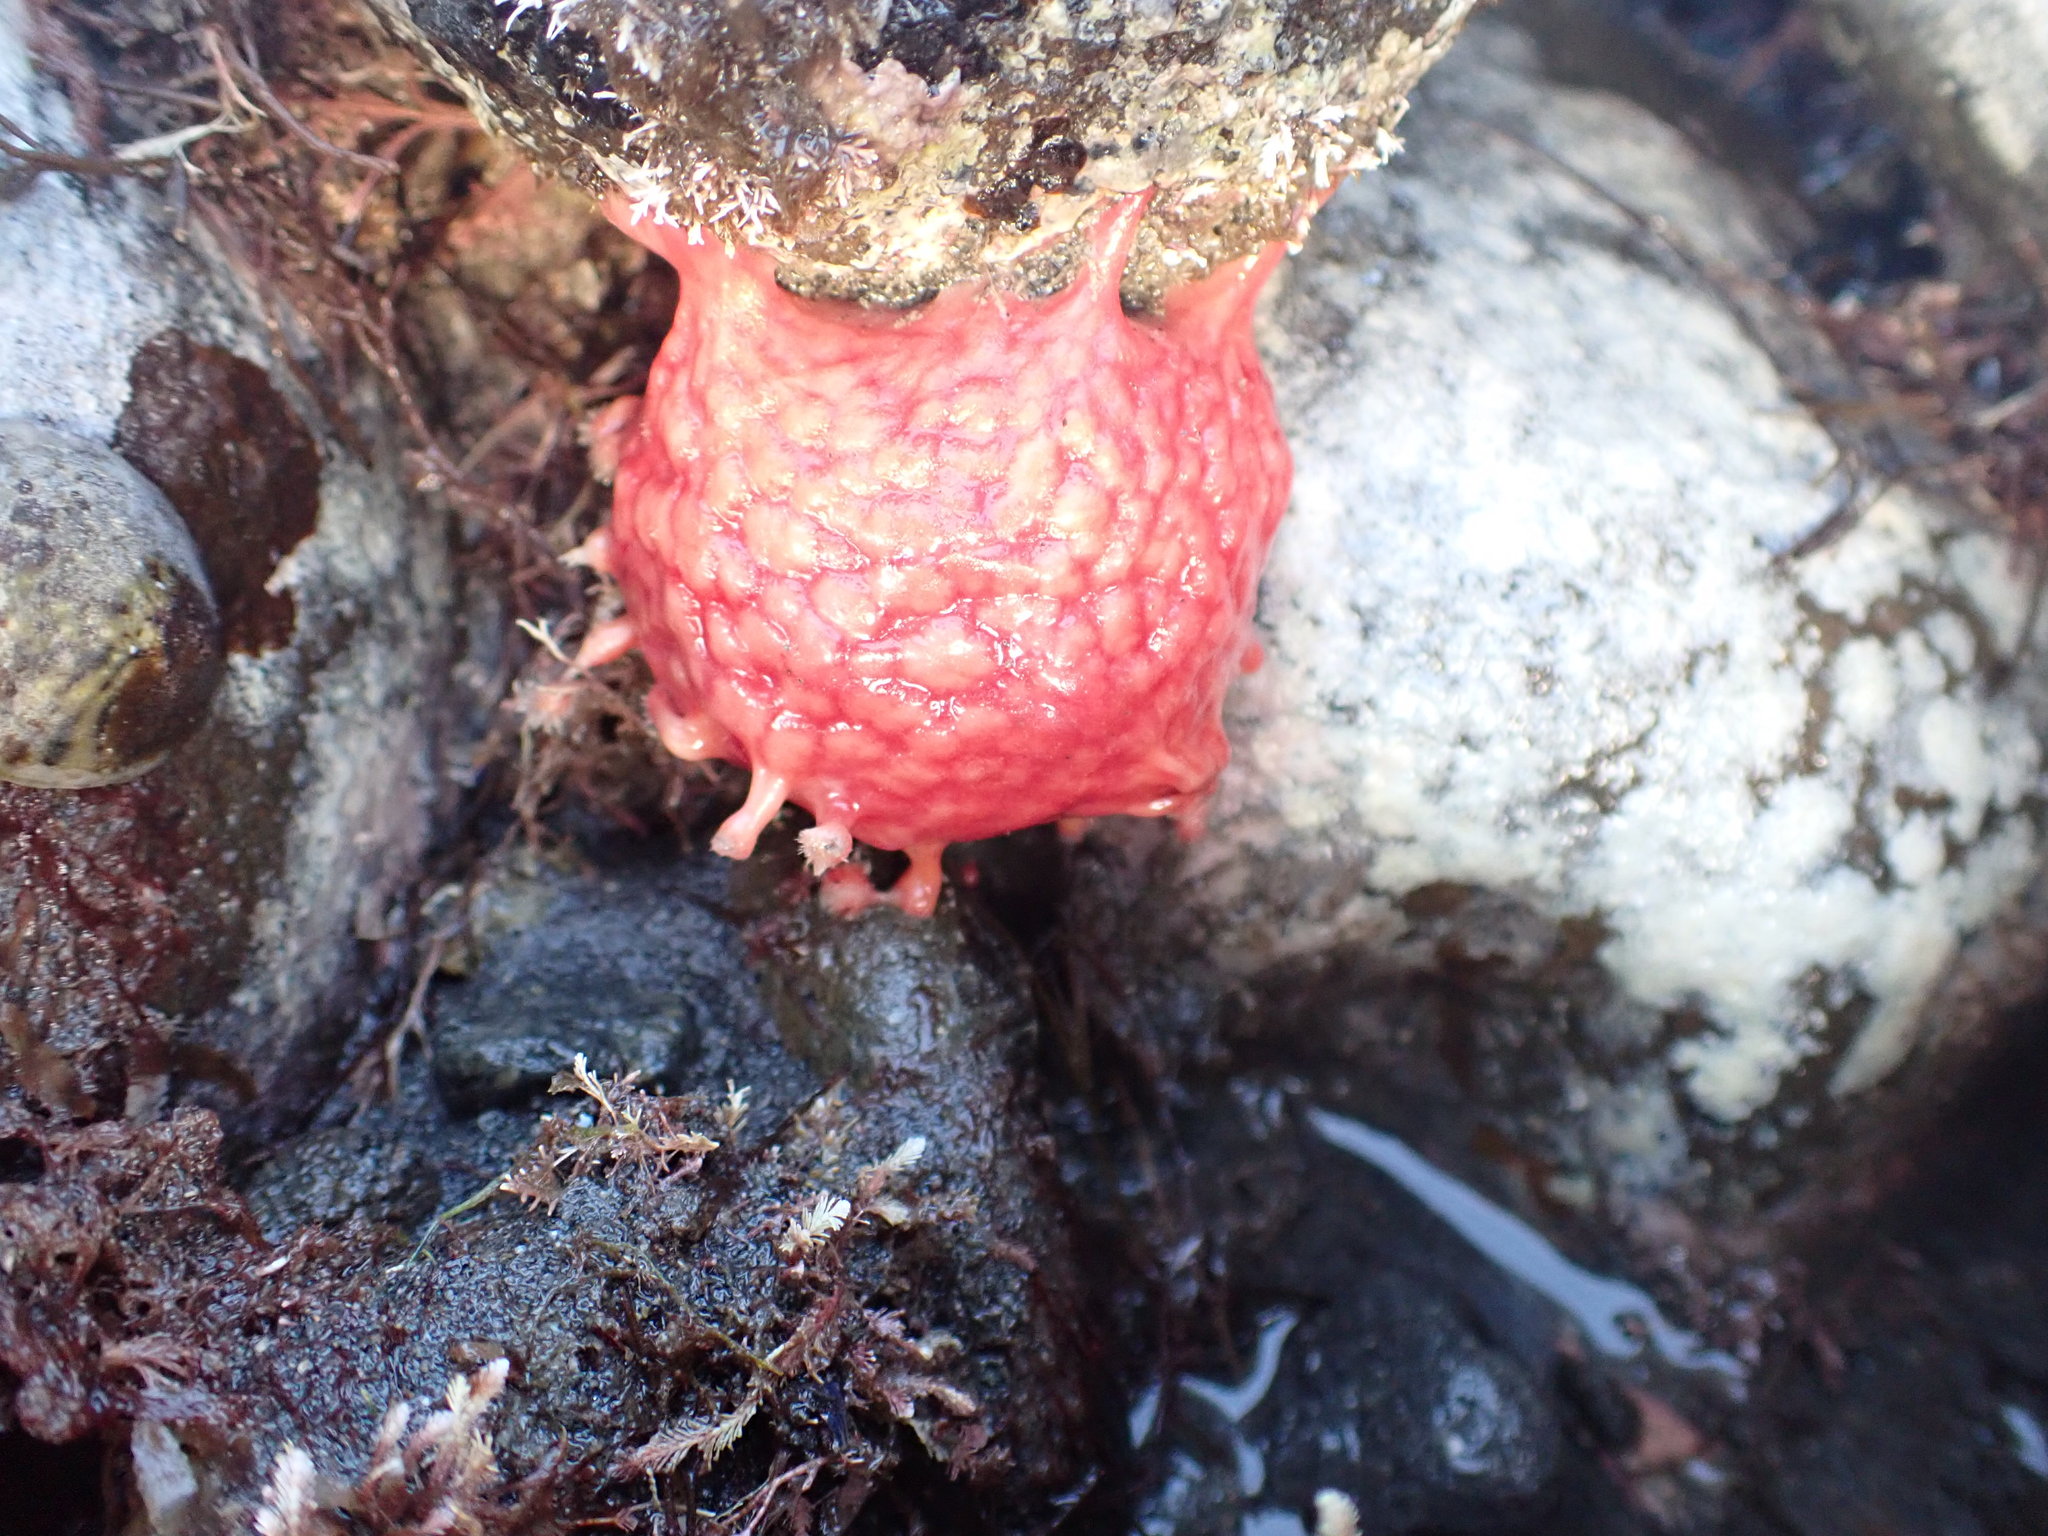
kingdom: Animalia
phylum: Porifera
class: Demospongiae
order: Tethyida
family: Tethyidae
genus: Tethya
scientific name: Tethya bergquistae
